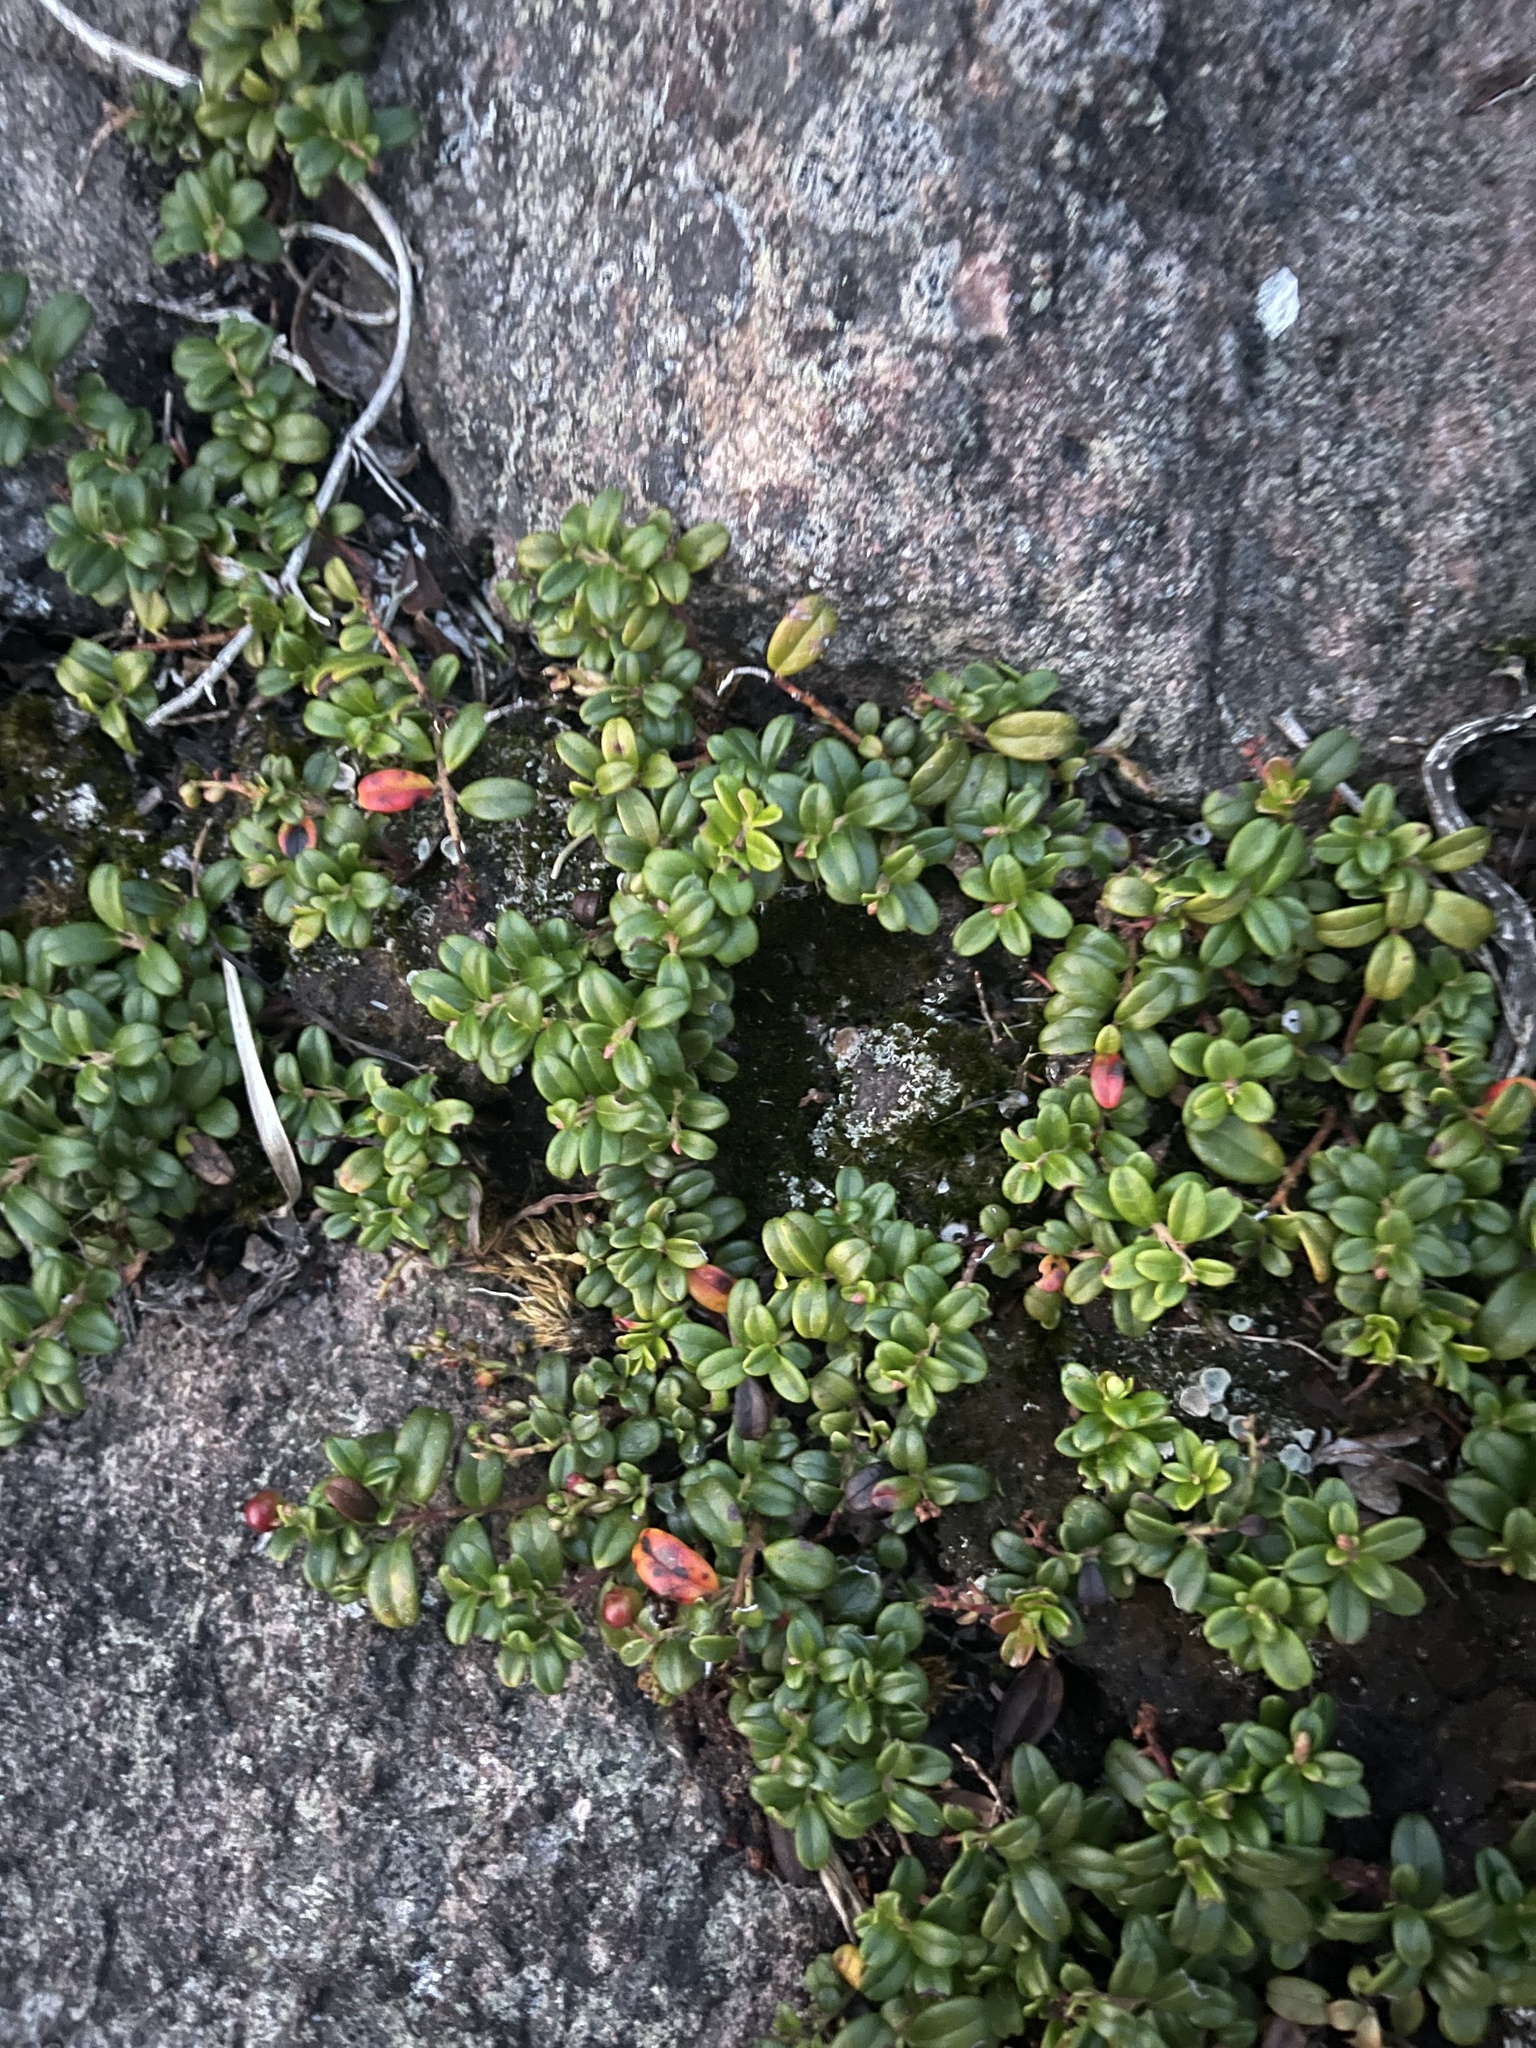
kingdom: Plantae
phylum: Tracheophyta
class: Magnoliopsida
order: Ericales
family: Ericaceae
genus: Vaccinium
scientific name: Vaccinium vitis-idaea
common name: Cowberry
